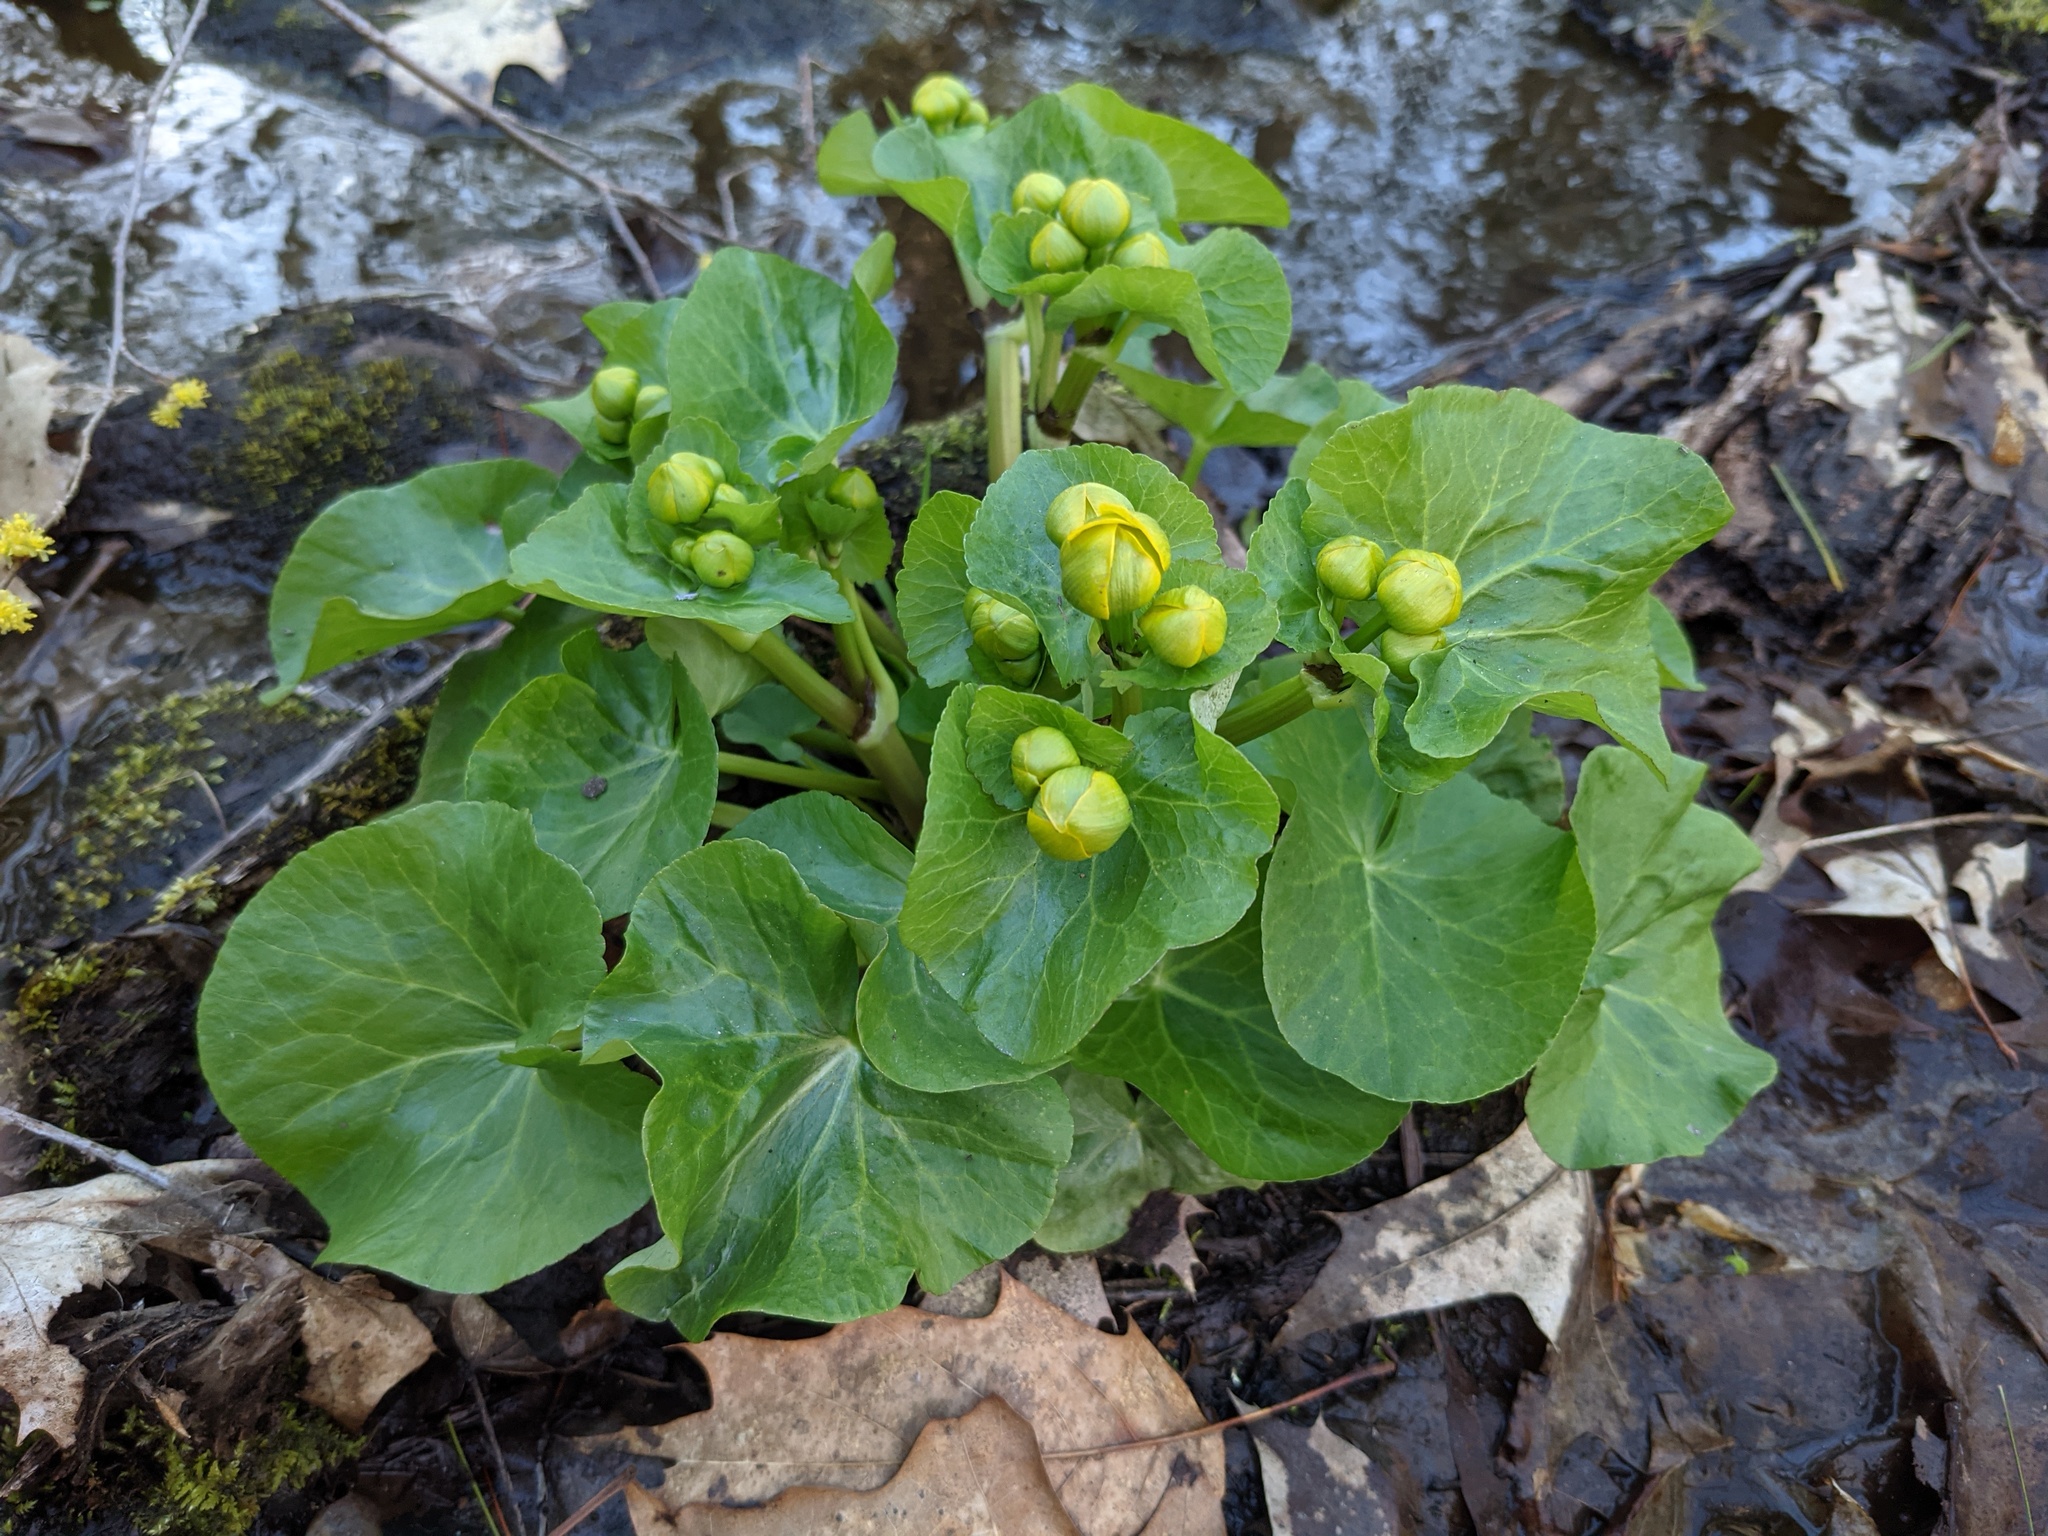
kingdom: Plantae
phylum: Tracheophyta
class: Magnoliopsida
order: Ranunculales
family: Ranunculaceae
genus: Caltha
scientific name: Caltha palustris
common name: Marsh marigold
